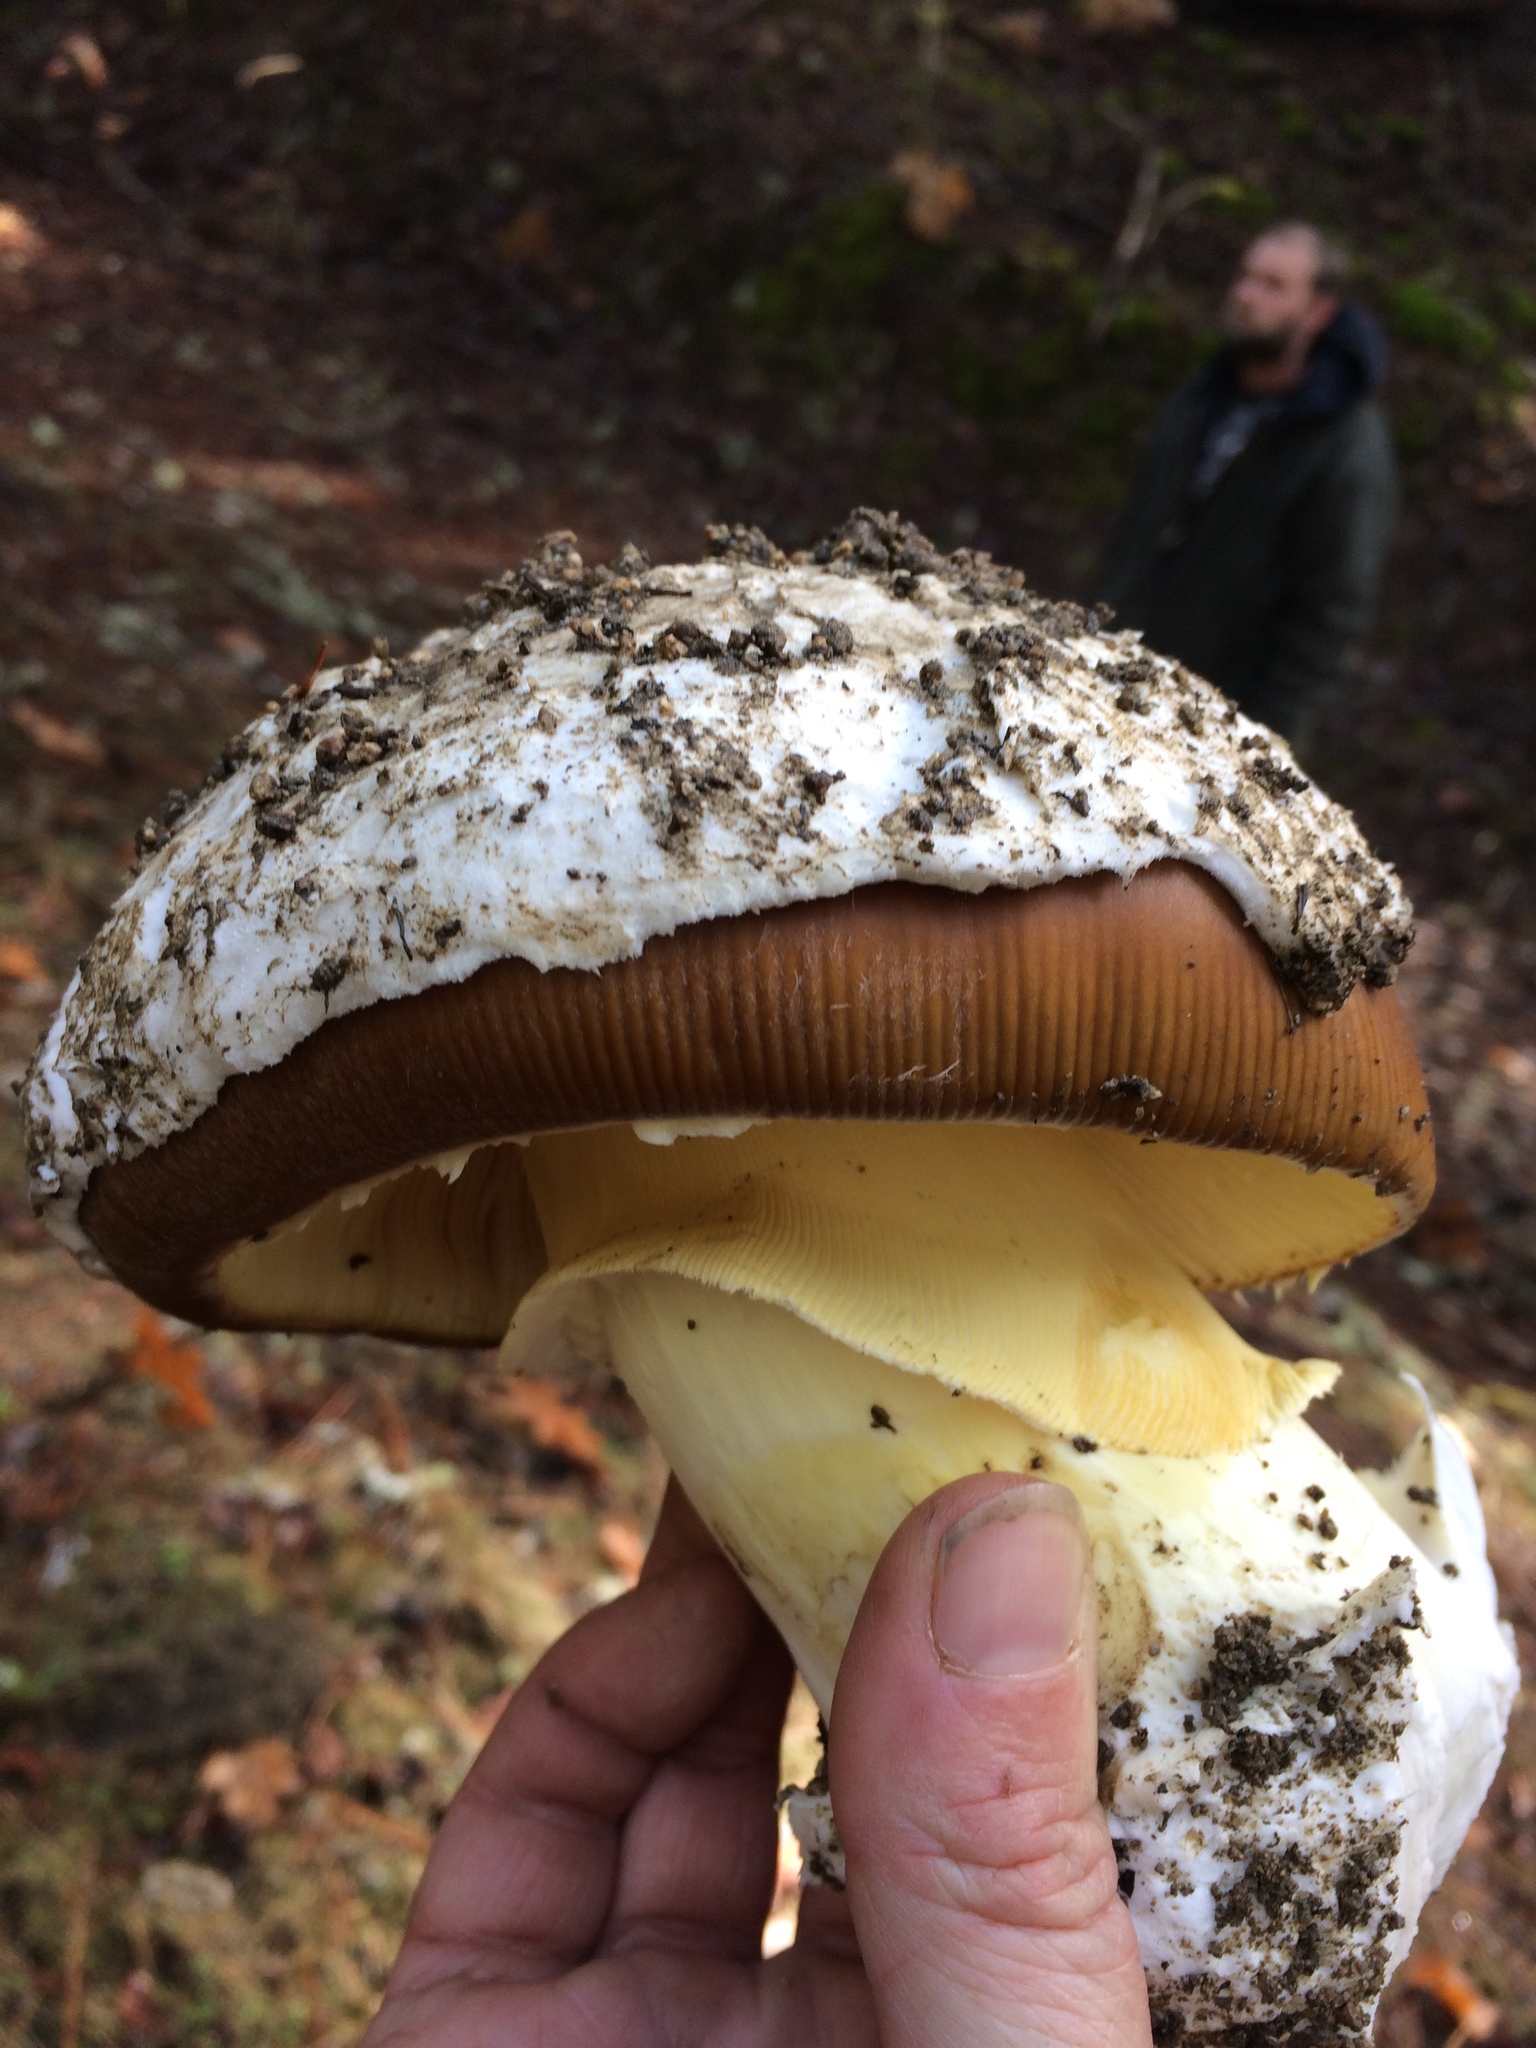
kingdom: Fungi
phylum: Basidiomycota
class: Agaricomycetes
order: Agaricales
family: Amanitaceae
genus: Amanita
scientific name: Amanita calyptroderma
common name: Coccora
